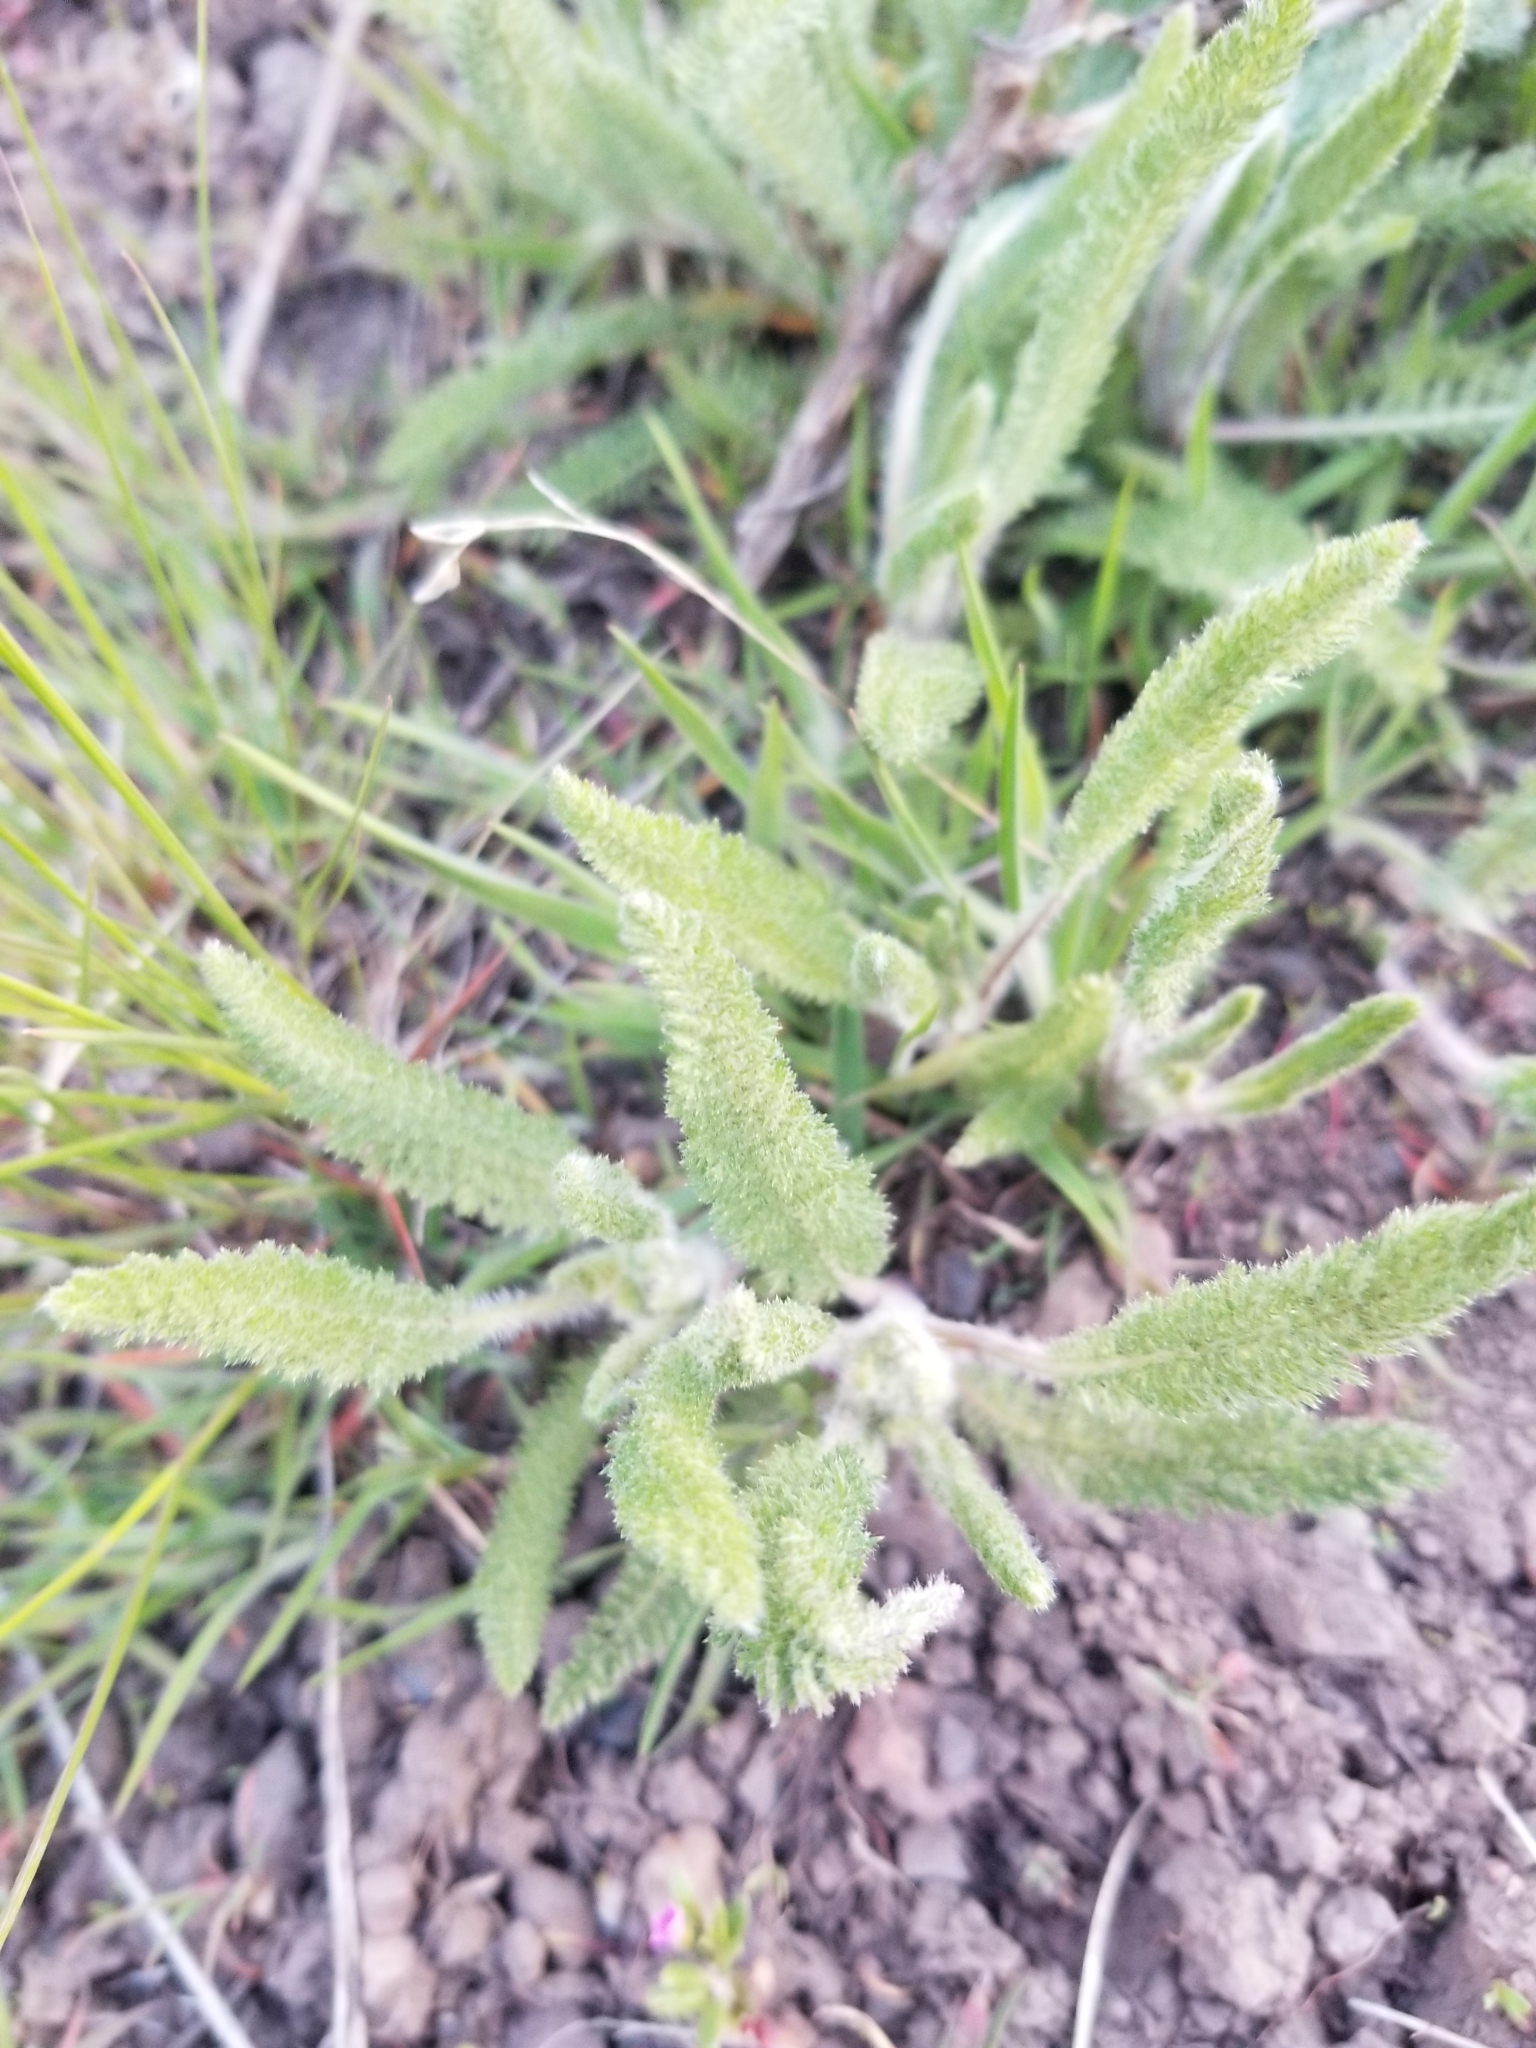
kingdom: Plantae
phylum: Tracheophyta
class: Magnoliopsida
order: Asterales
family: Asteraceae
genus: Achillea
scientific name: Achillea millefolium
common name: Yarrow
